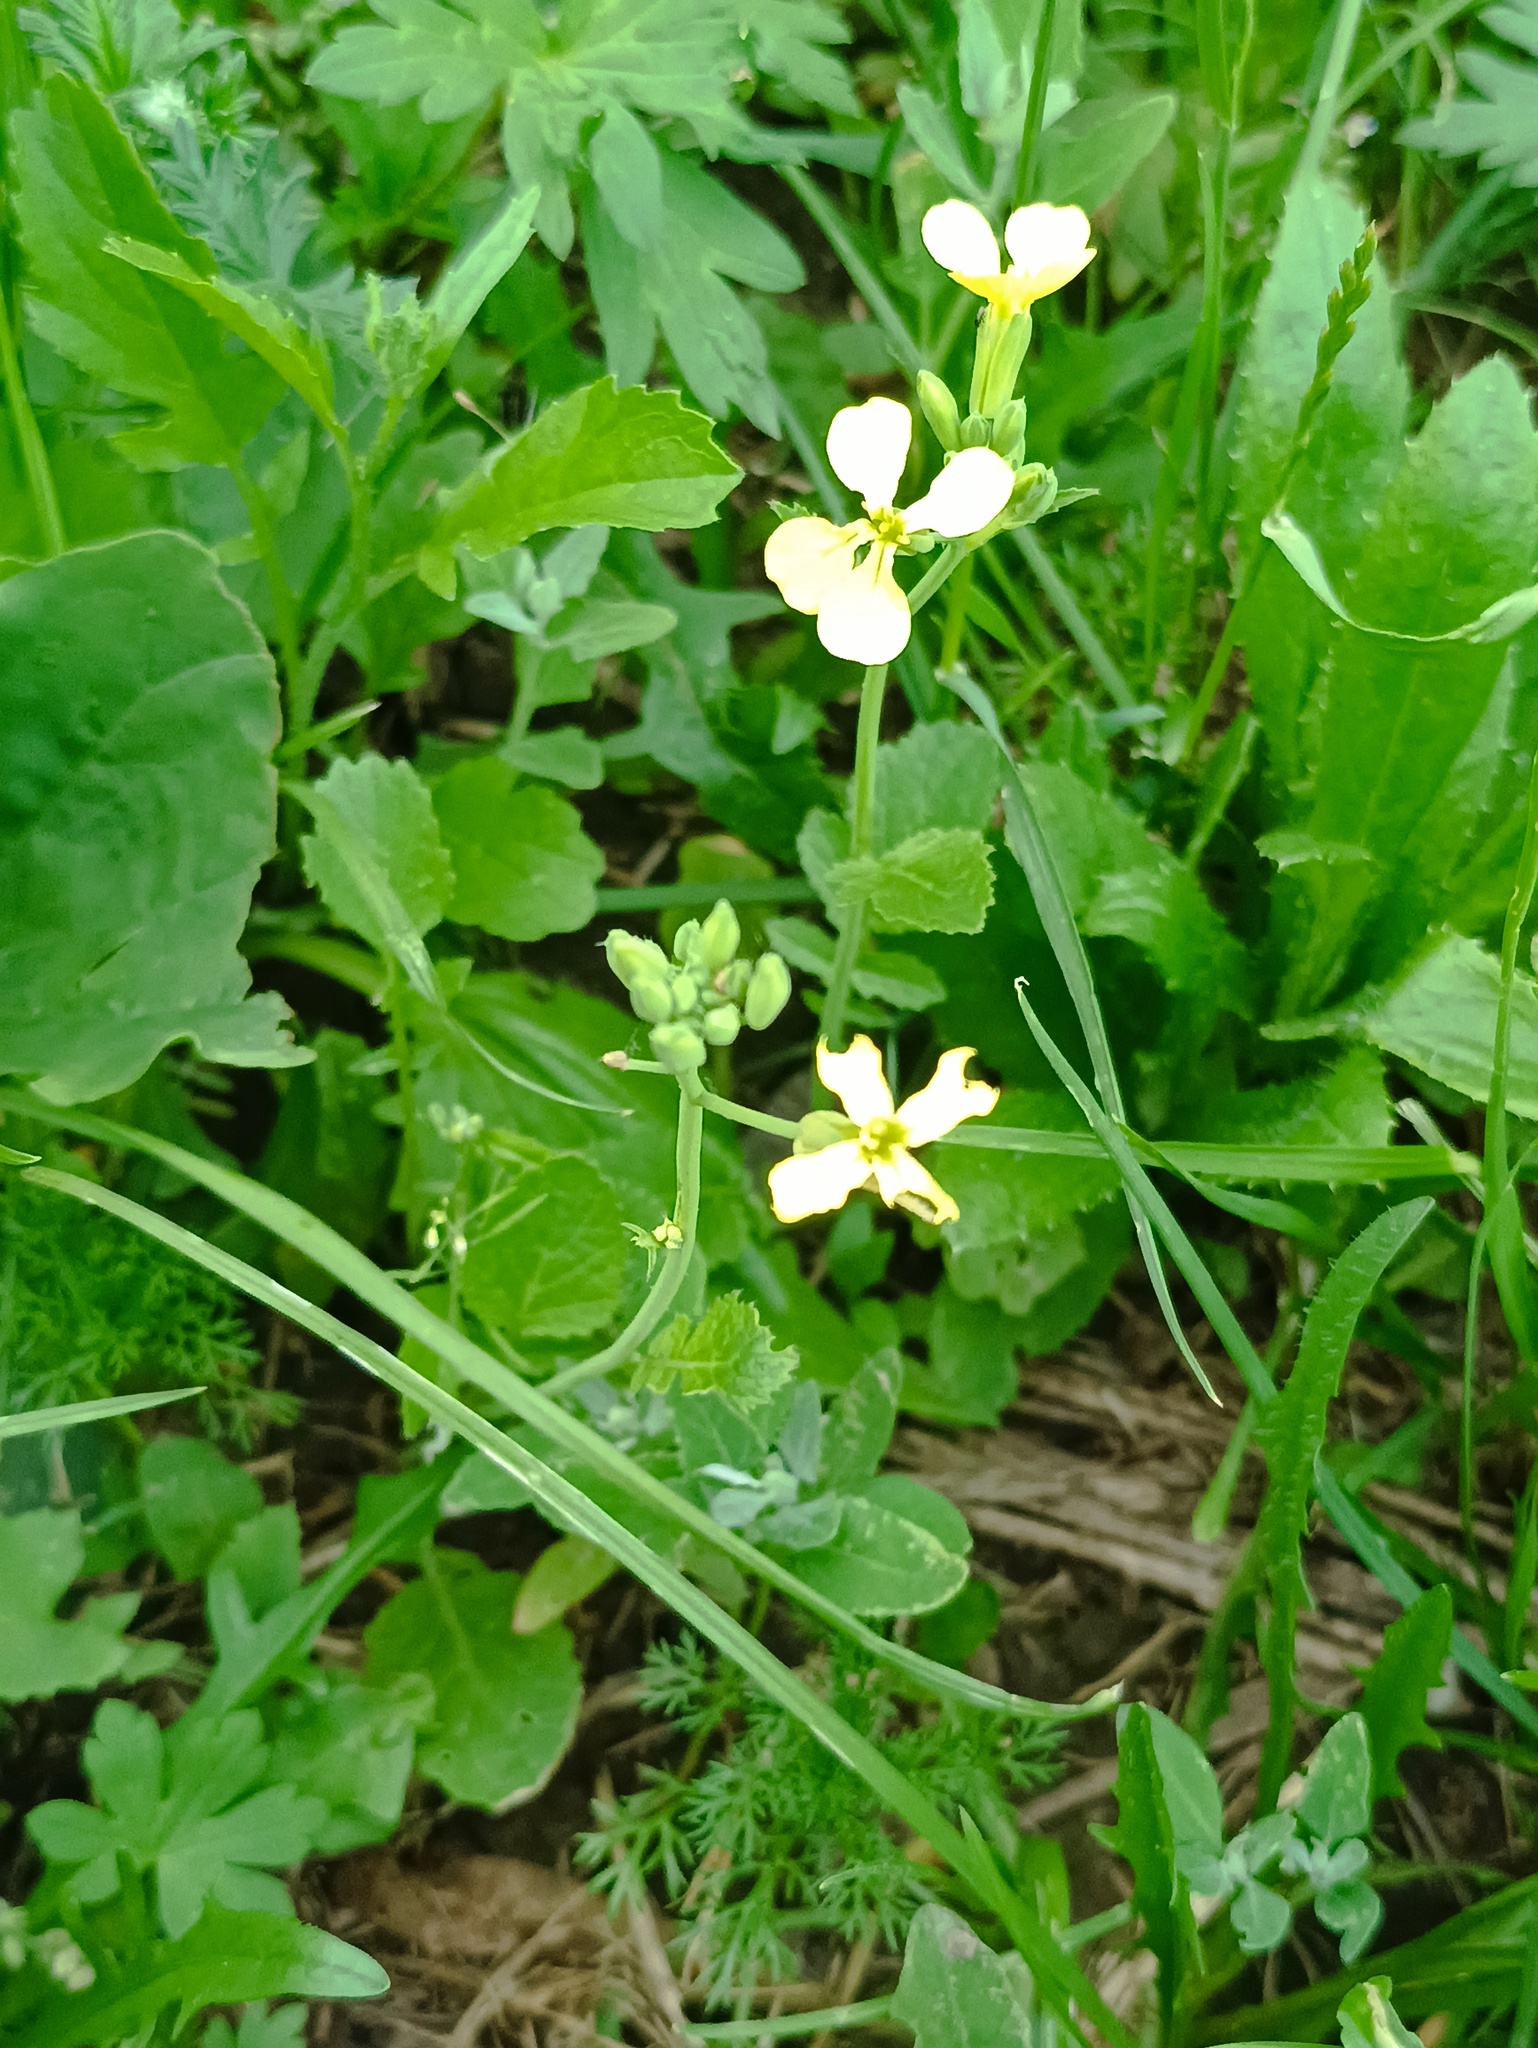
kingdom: Plantae
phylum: Tracheophyta
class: Magnoliopsida
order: Brassicales
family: Brassicaceae
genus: Raphanus
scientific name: Raphanus raphanistrum
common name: Wild radish
